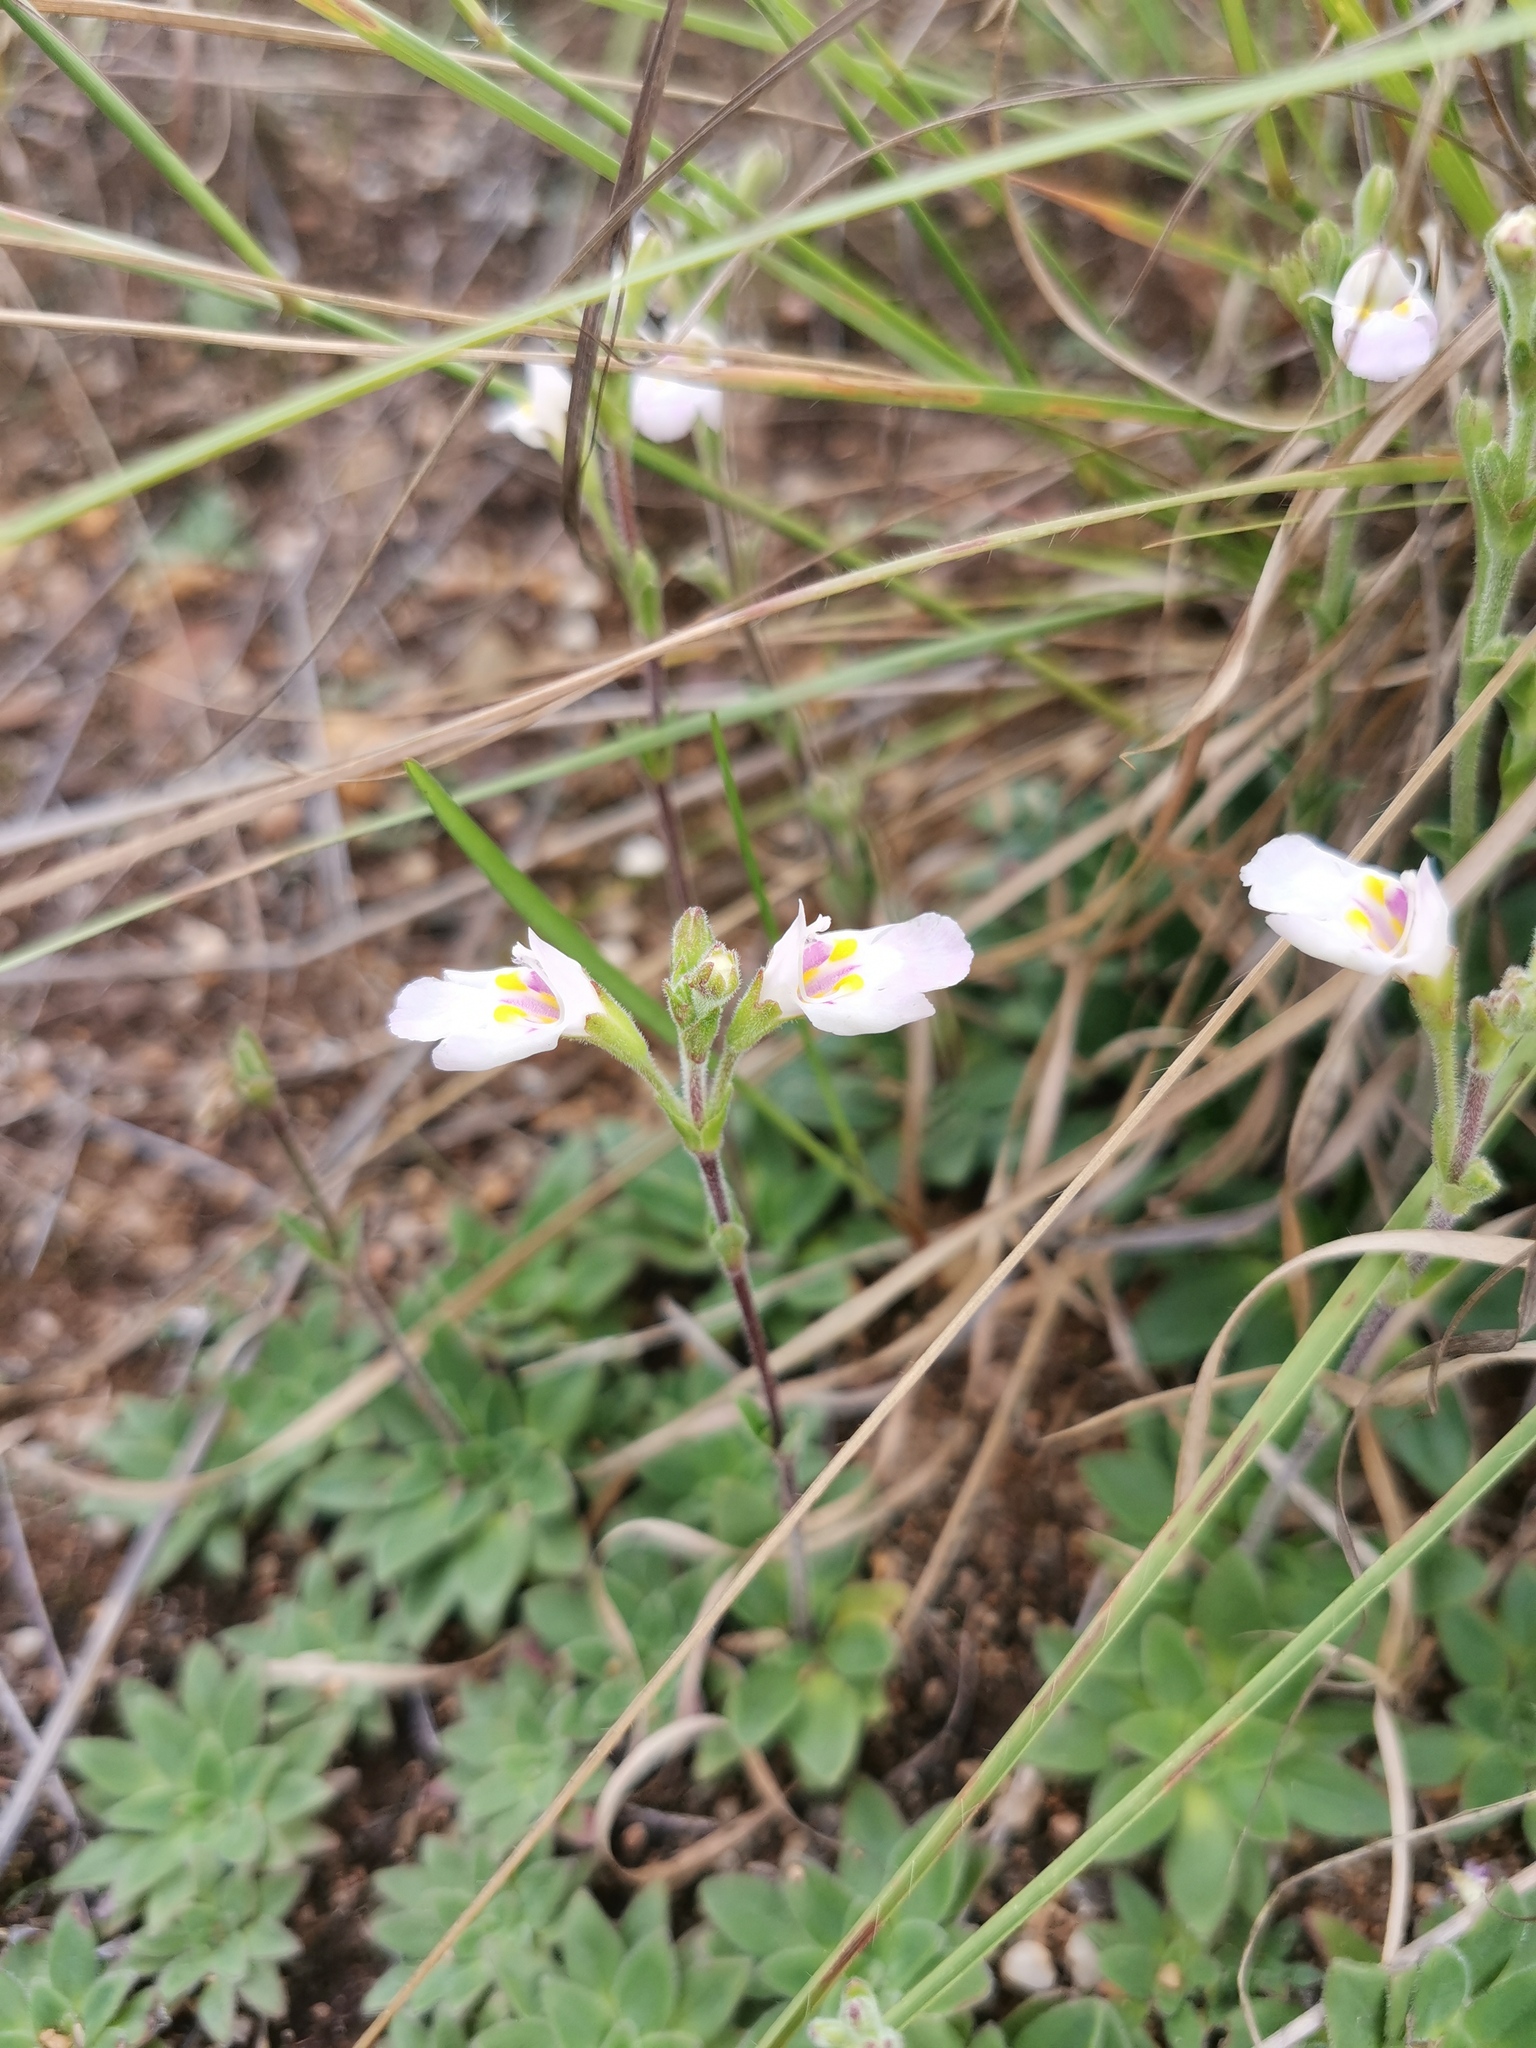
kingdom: Plantae
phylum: Tracheophyta
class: Magnoliopsida
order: Lamiales
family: Linderniaceae
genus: Craterostigma
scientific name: Craterostigma wilmsii
